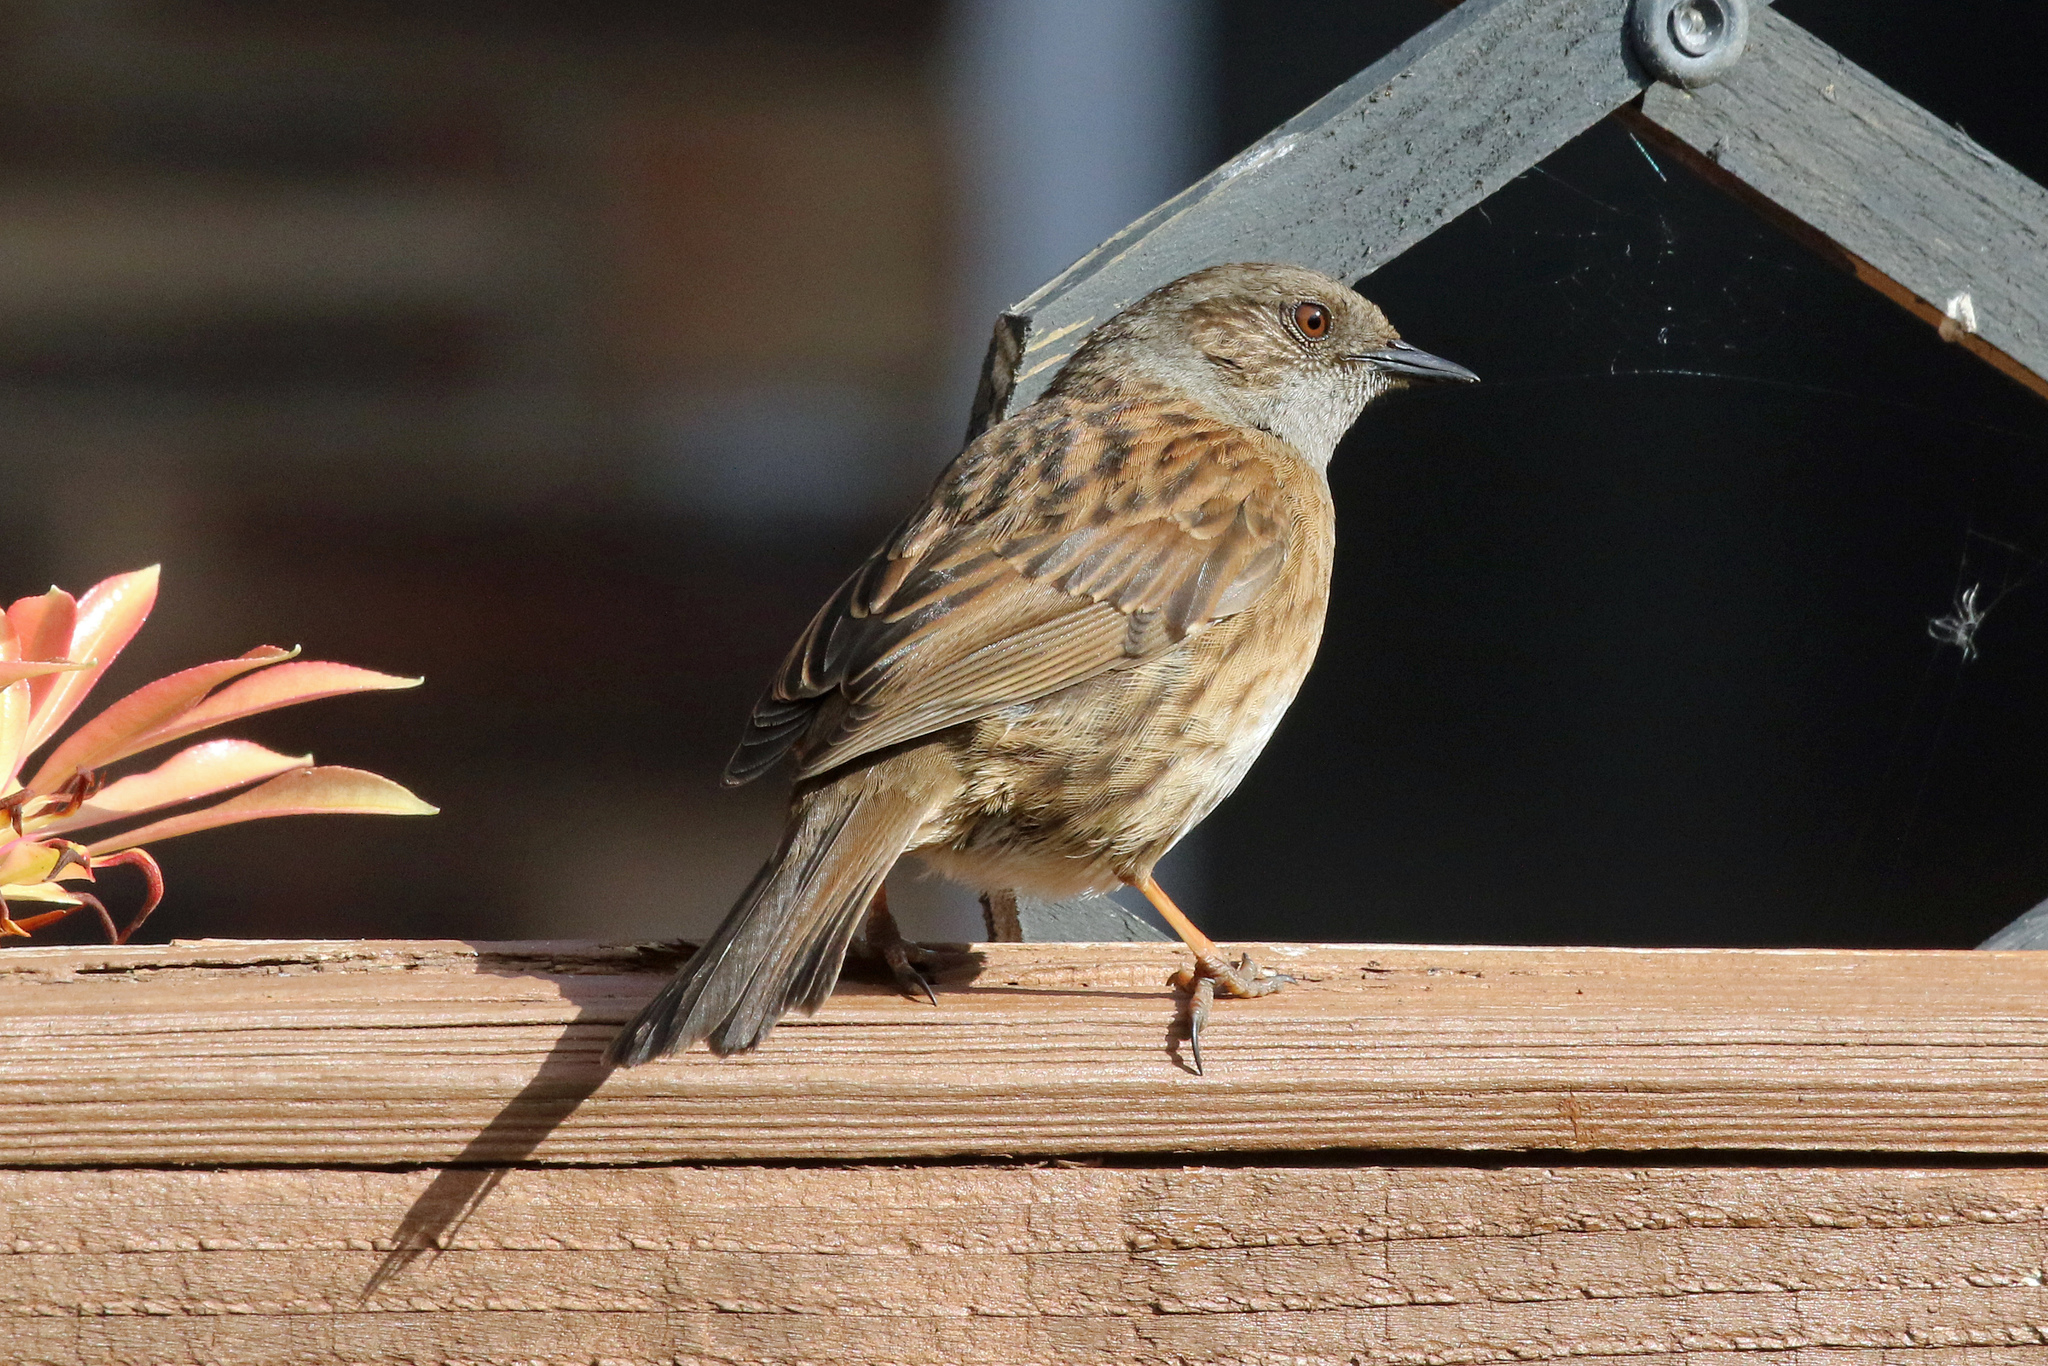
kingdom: Animalia
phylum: Chordata
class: Aves
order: Passeriformes
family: Prunellidae
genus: Prunella
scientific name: Prunella modularis
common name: Dunnock
